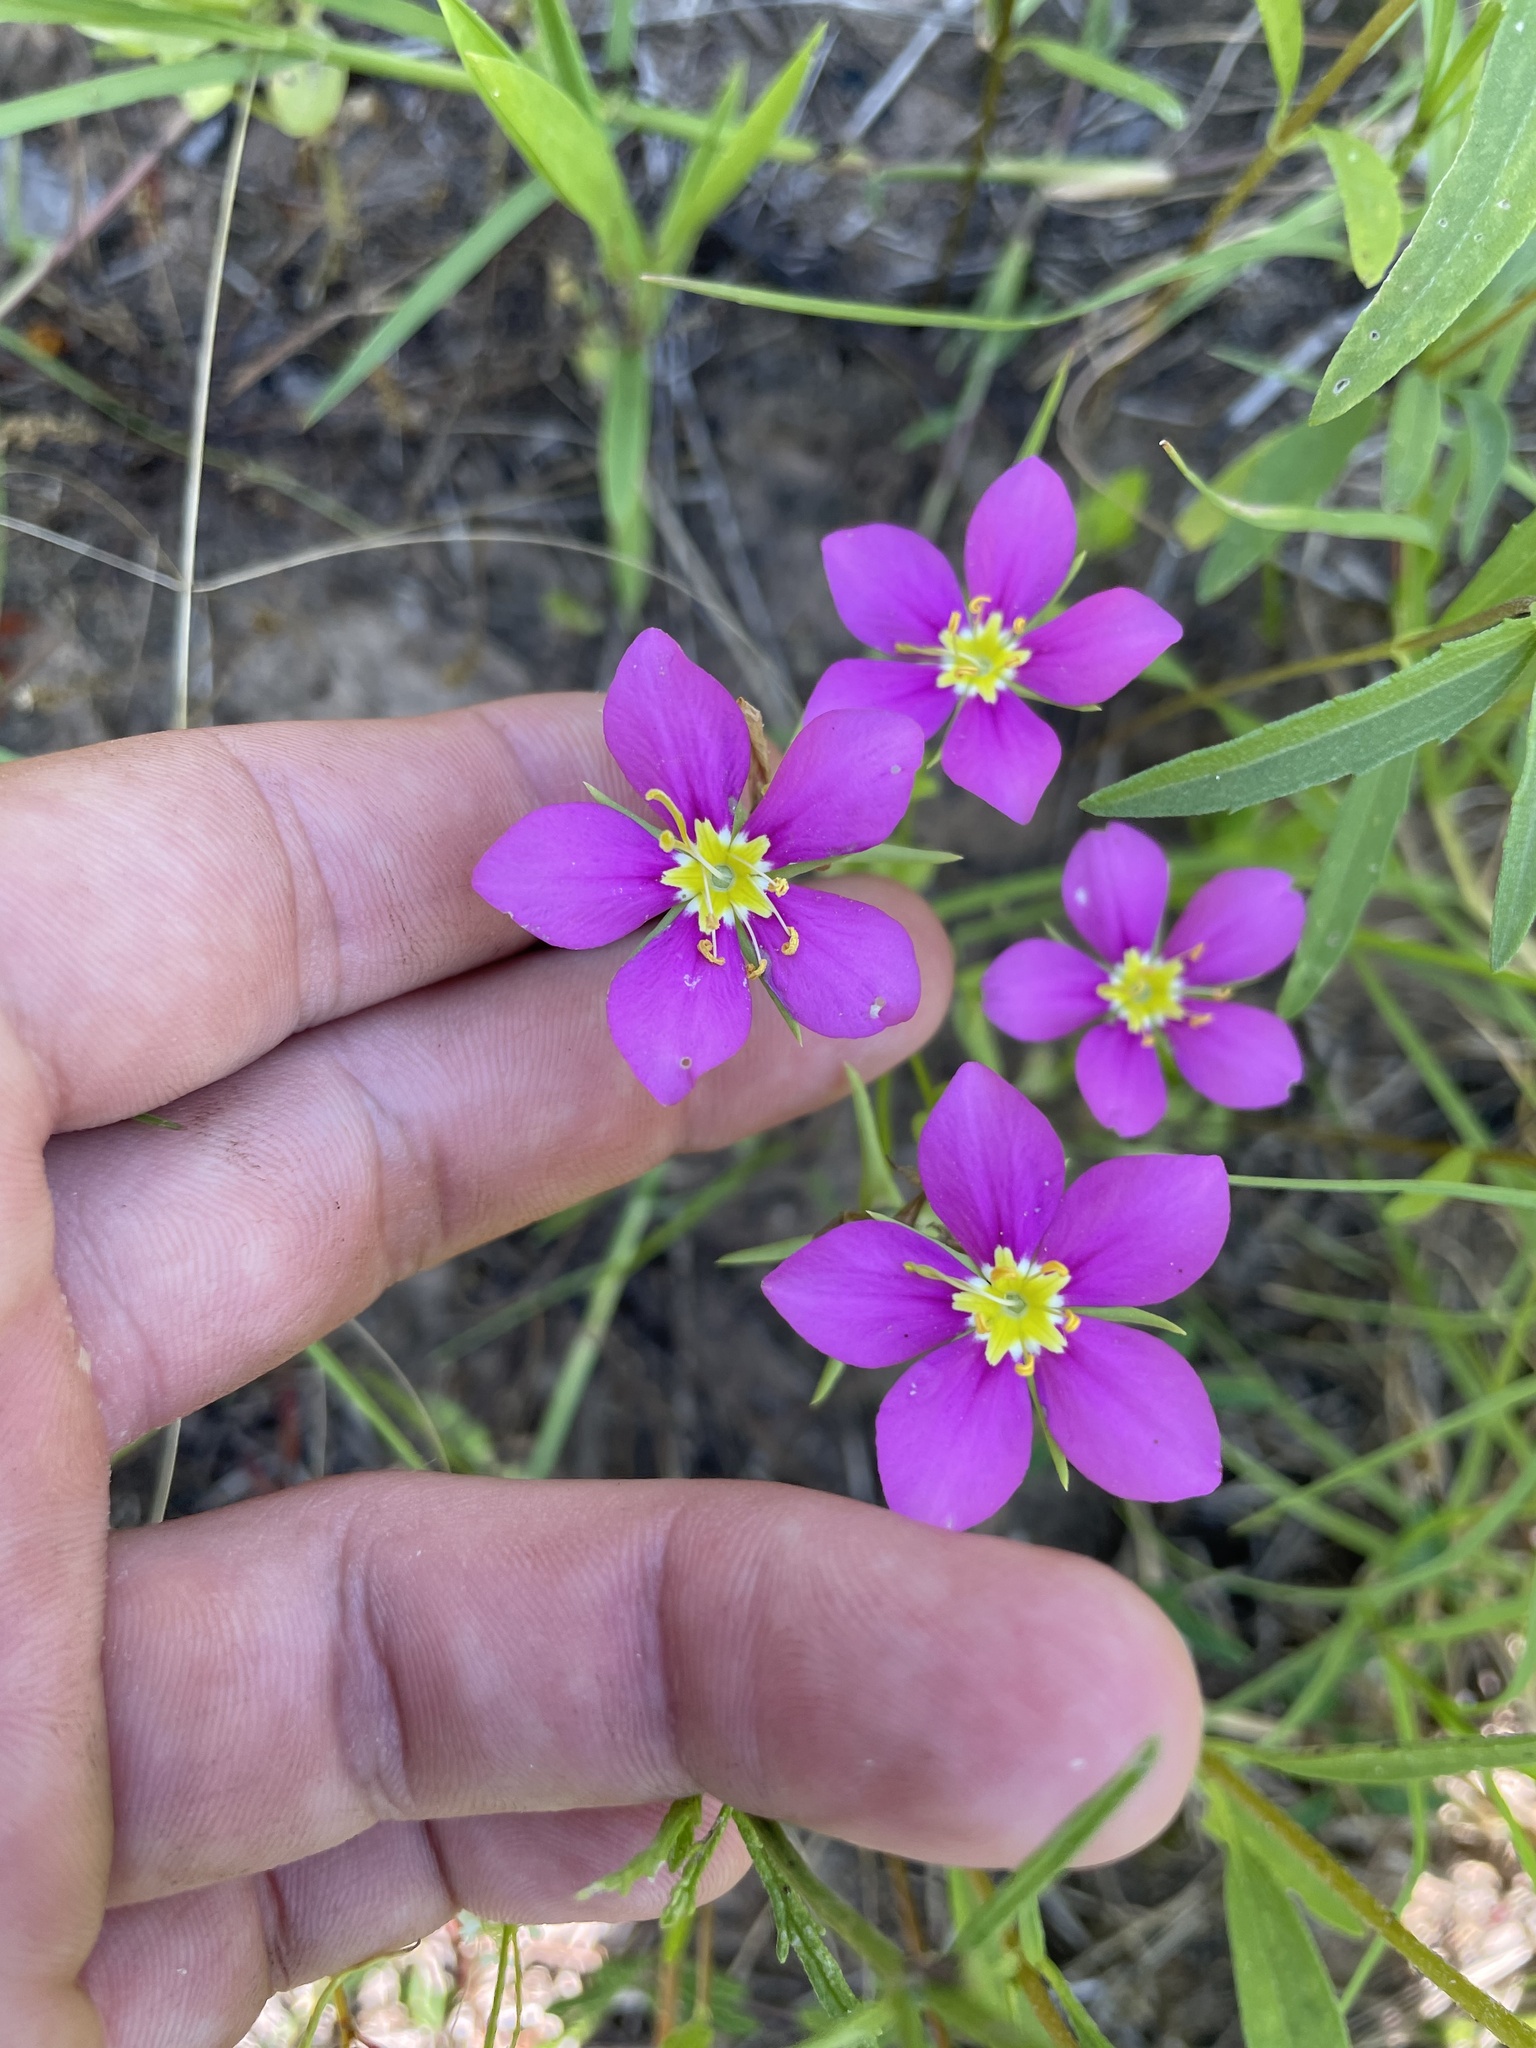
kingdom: Plantae
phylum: Tracheophyta
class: Magnoliopsida
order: Gentianales
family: Gentianaceae
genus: Sabatia
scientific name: Sabatia campestris
